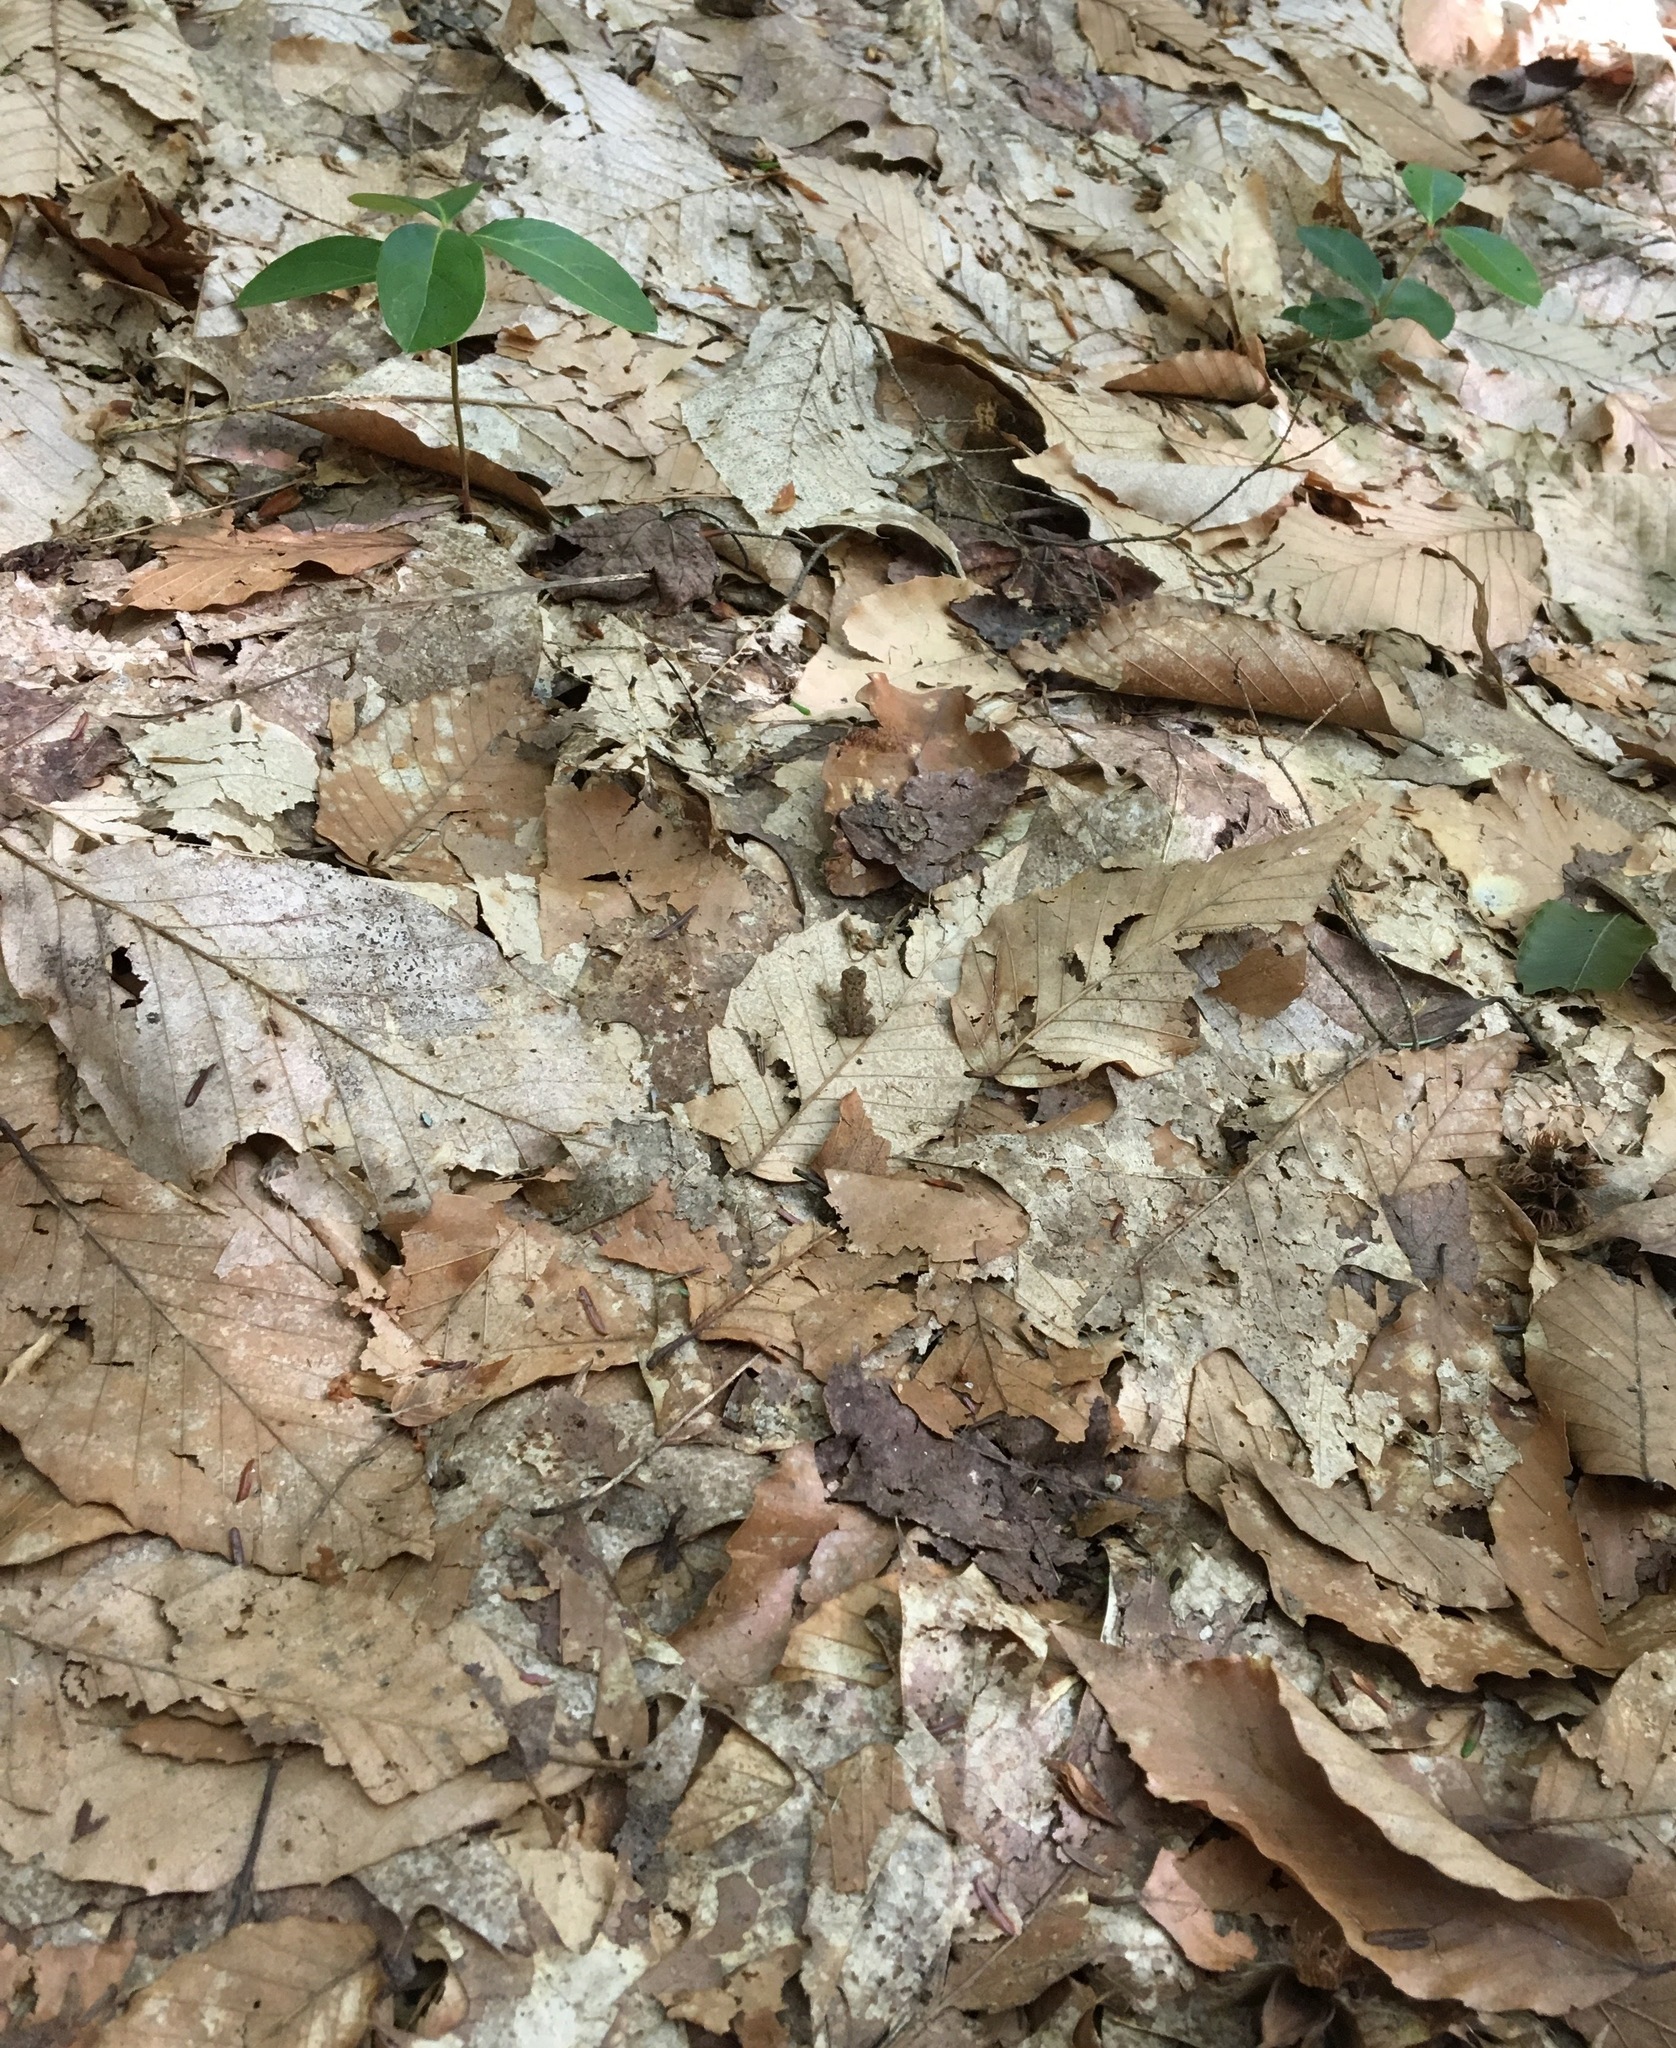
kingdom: Animalia
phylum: Chordata
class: Amphibia
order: Anura
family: Bufonidae
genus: Anaxyrus
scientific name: Anaxyrus americanus
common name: American toad
